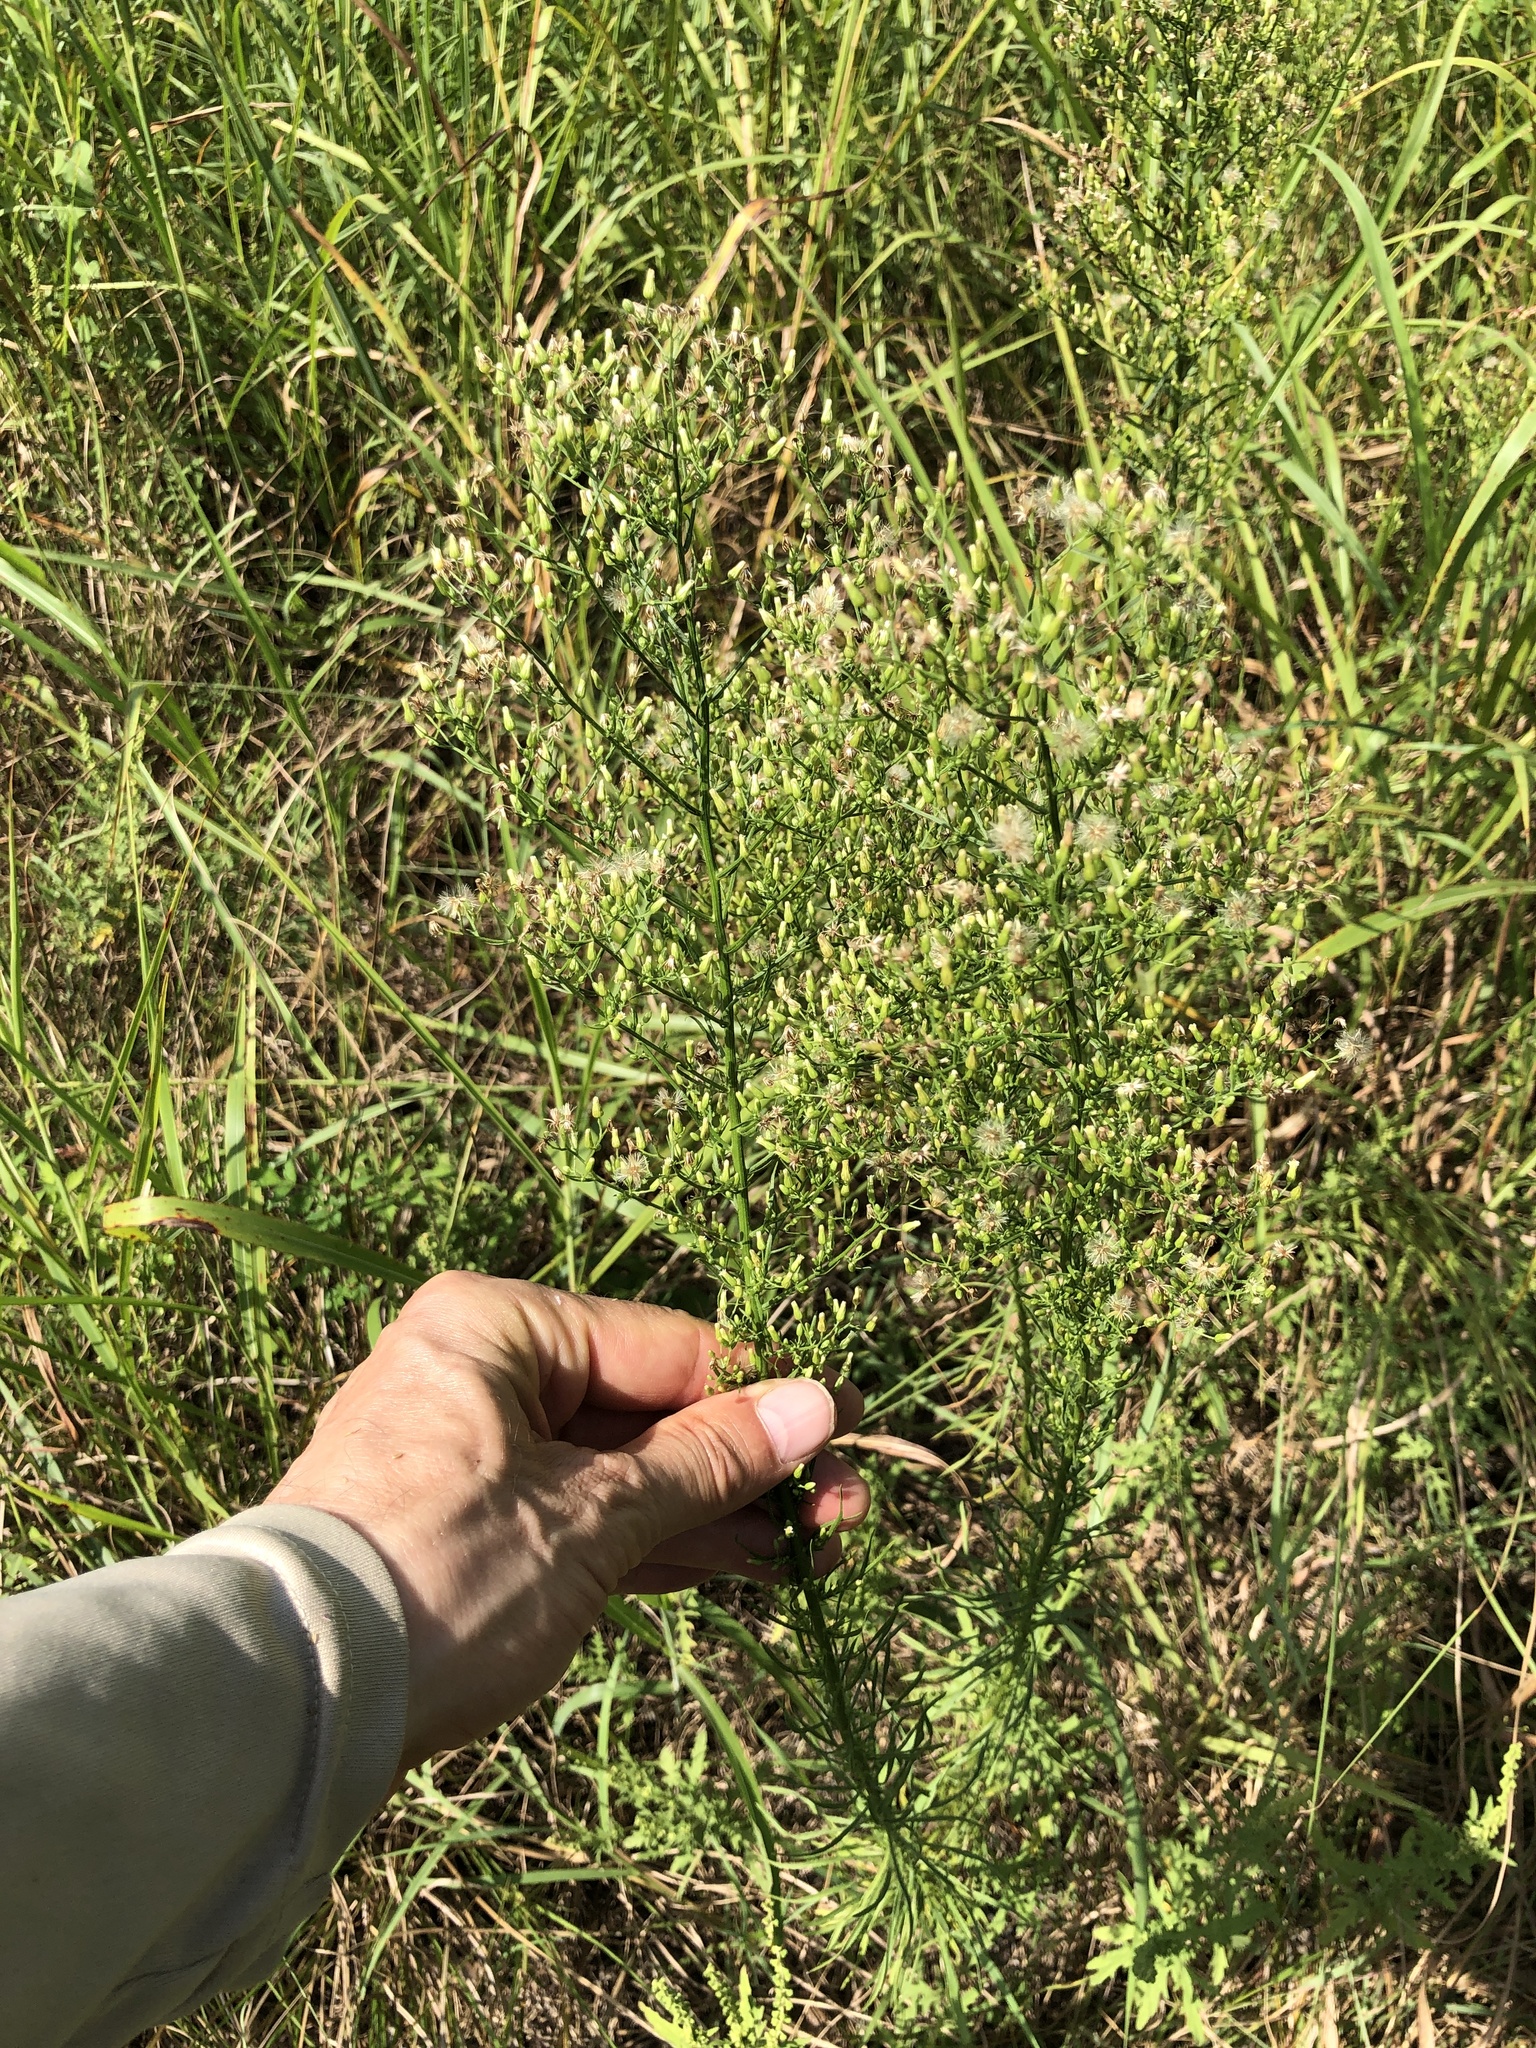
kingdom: Plantae
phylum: Tracheophyta
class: Magnoliopsida
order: Asterales
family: Asteraceae
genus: Erigeron
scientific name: Erigeron canadensis
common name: Canadian fleabane
